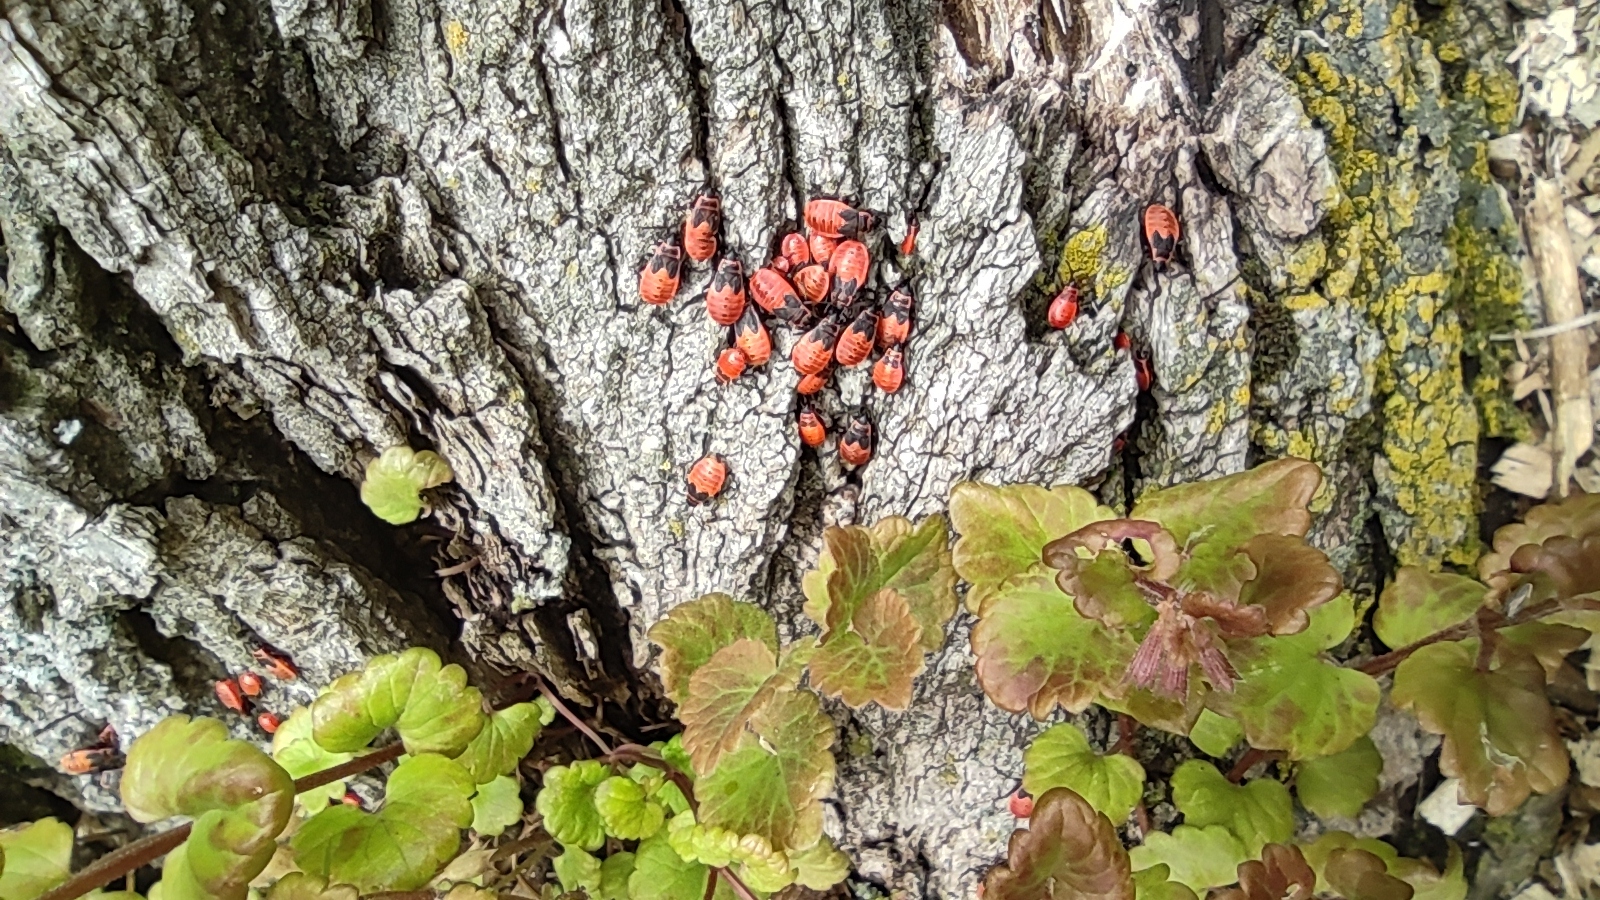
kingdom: Animalia
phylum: Arthropoda
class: Insecta
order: Hemiptera
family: Pyrrhocoridae
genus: Pyrrhocoris
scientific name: Pyrrhocoris apterus
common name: Firebug
